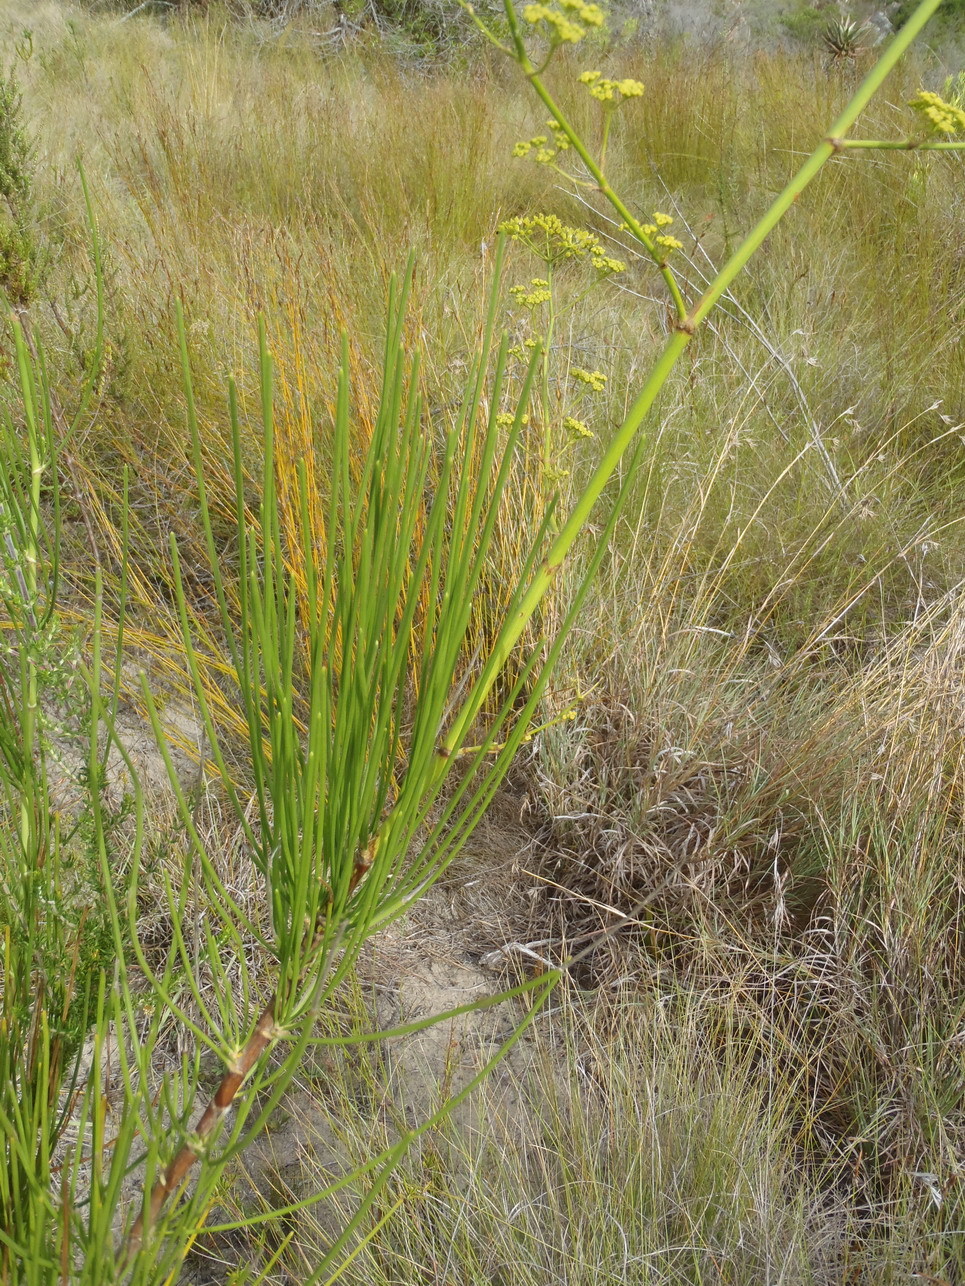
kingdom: Plantae
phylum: Tracheophyta
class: Magnoliopsida
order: Apiales
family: Apiaceae
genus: Anginon
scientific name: Anginon difforme
